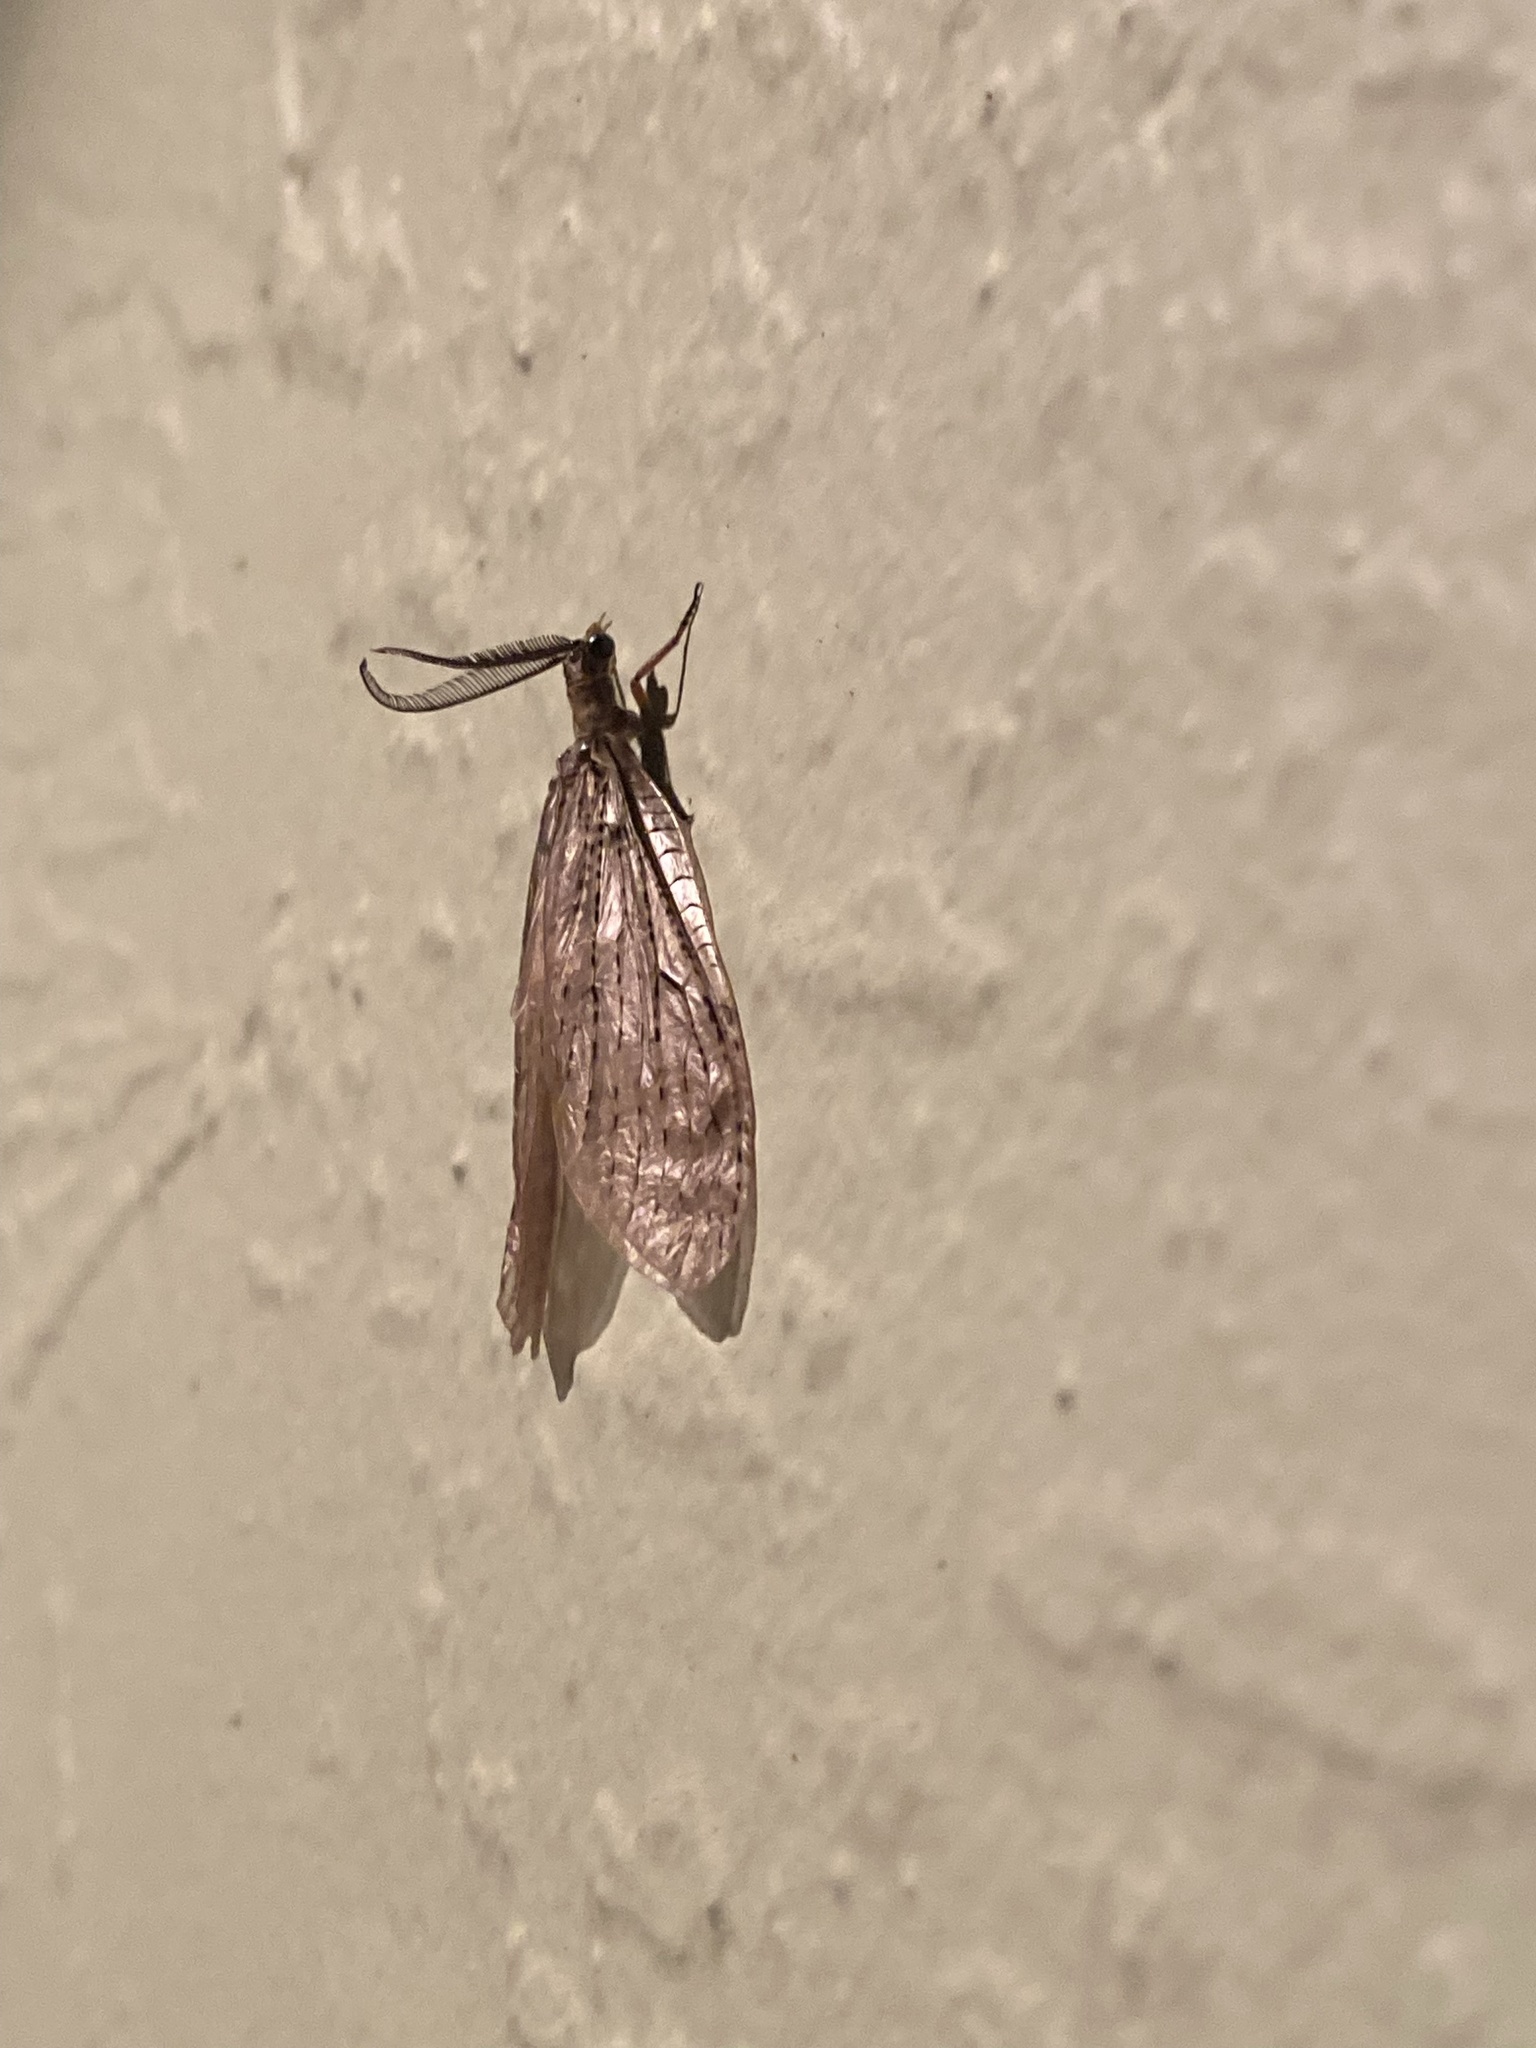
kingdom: Animalia
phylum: Arthropoda
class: Insecta
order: Megaloptera
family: Corydalidae
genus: Chauliodes
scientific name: Chauliodes rastricornis
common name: Spring fishfly
